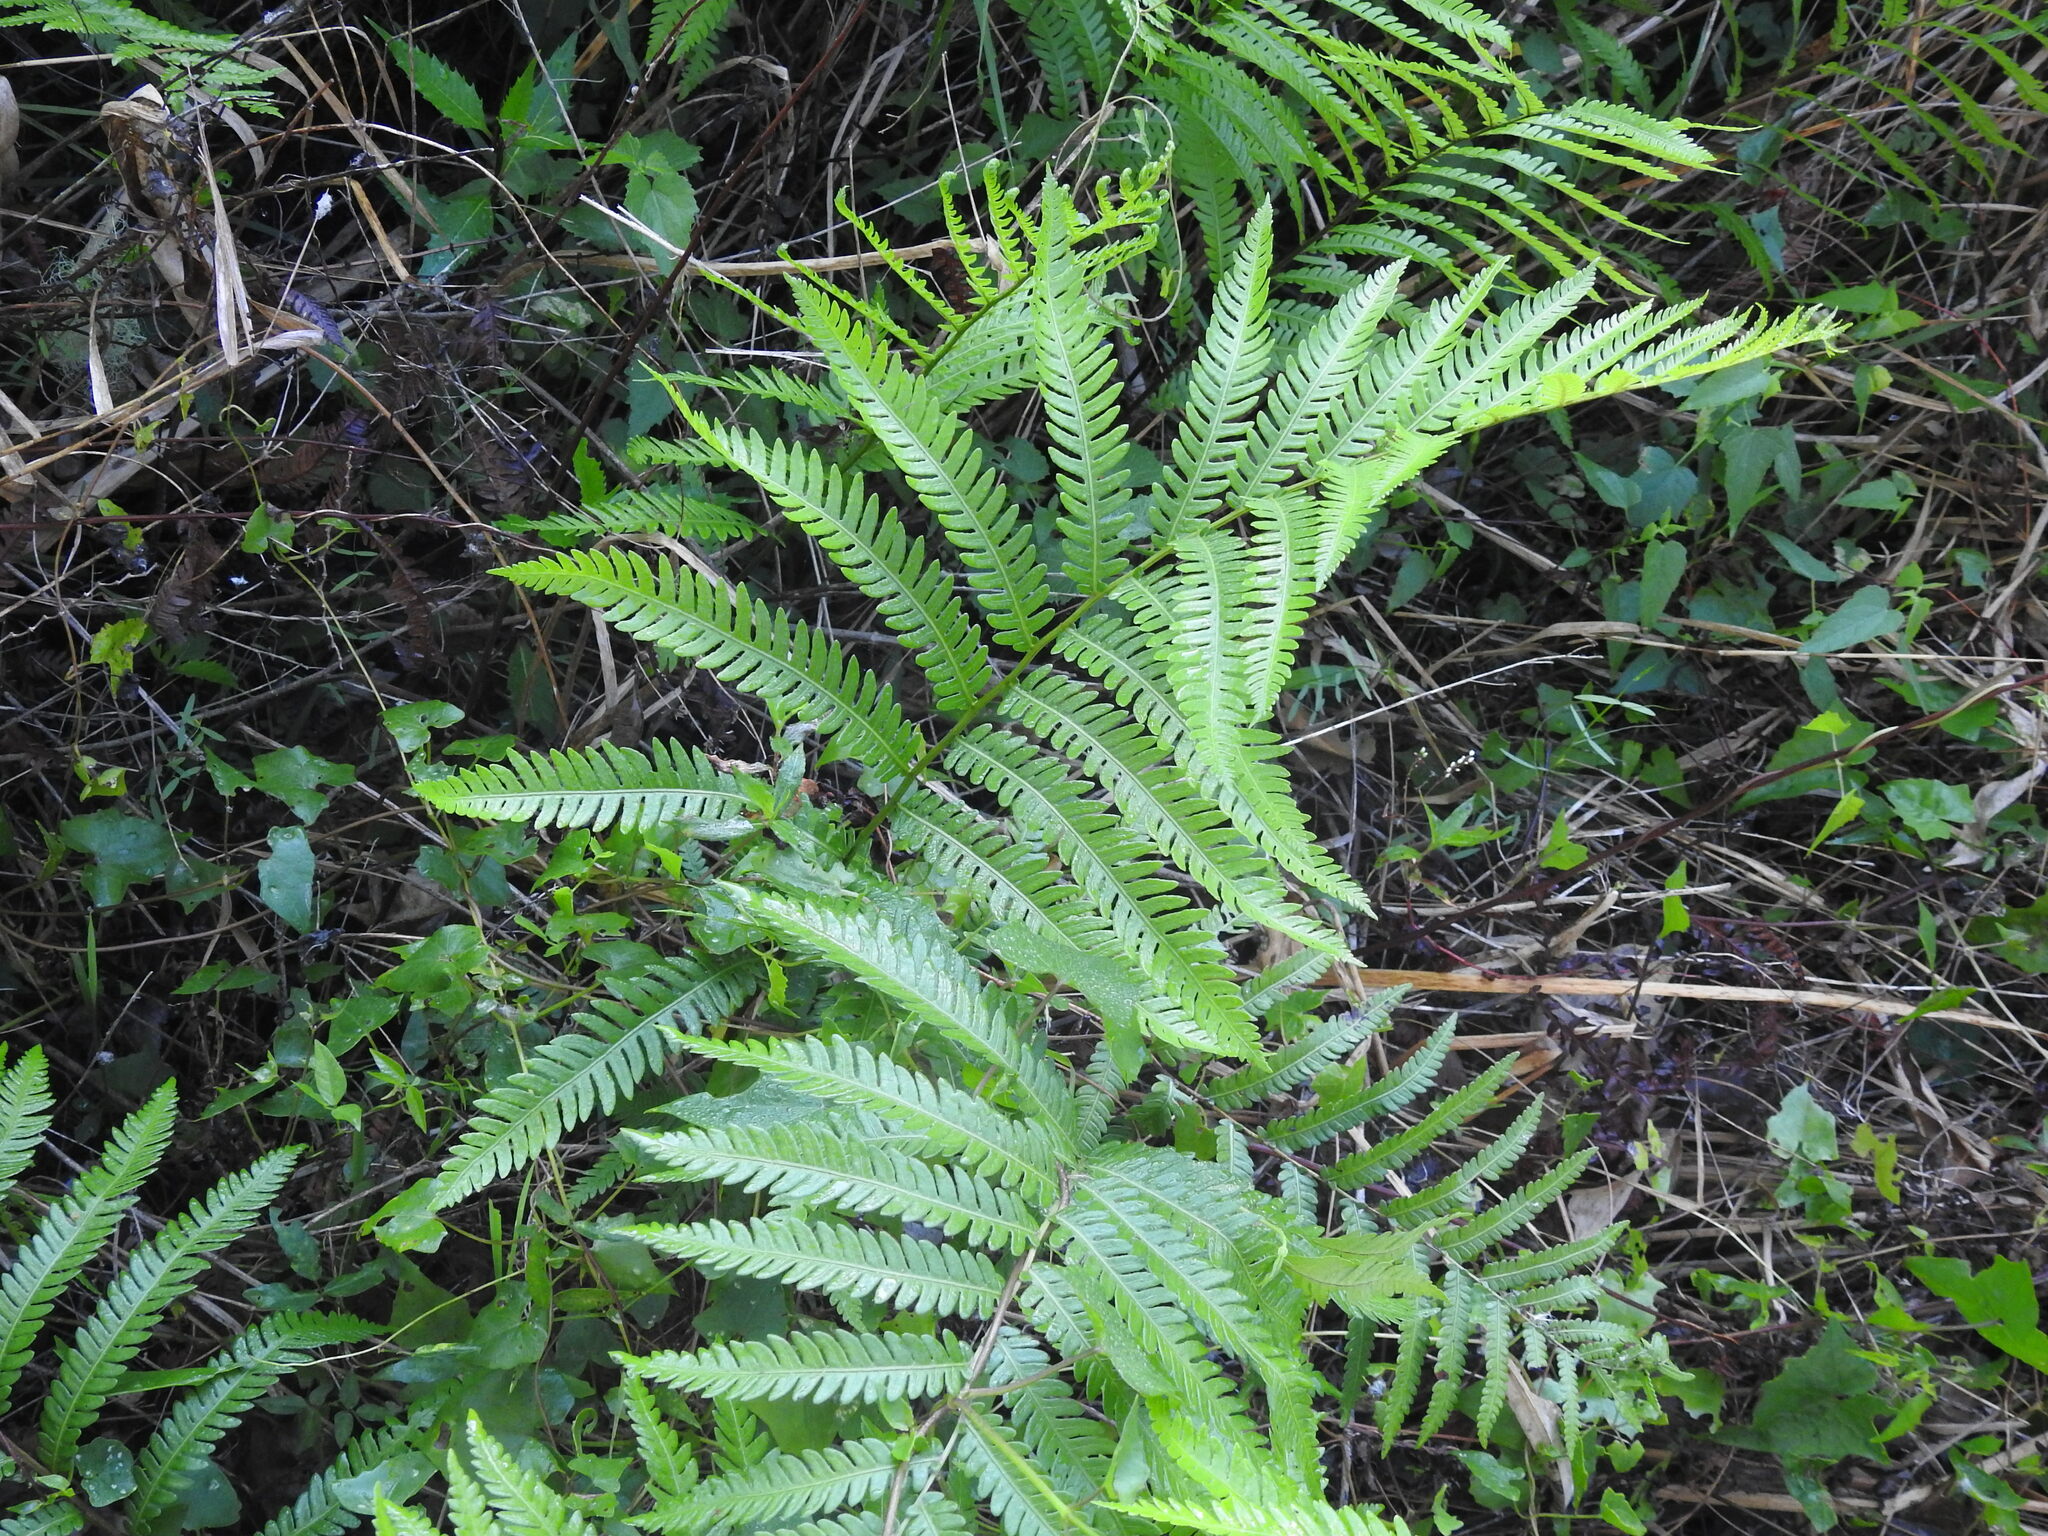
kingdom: Plantae
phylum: Tracheophyta
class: Polypodiopsida
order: Polypodiales
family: Blechnaceae
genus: Anchistea
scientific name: Anchistea virginica
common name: Virginia chain fern
